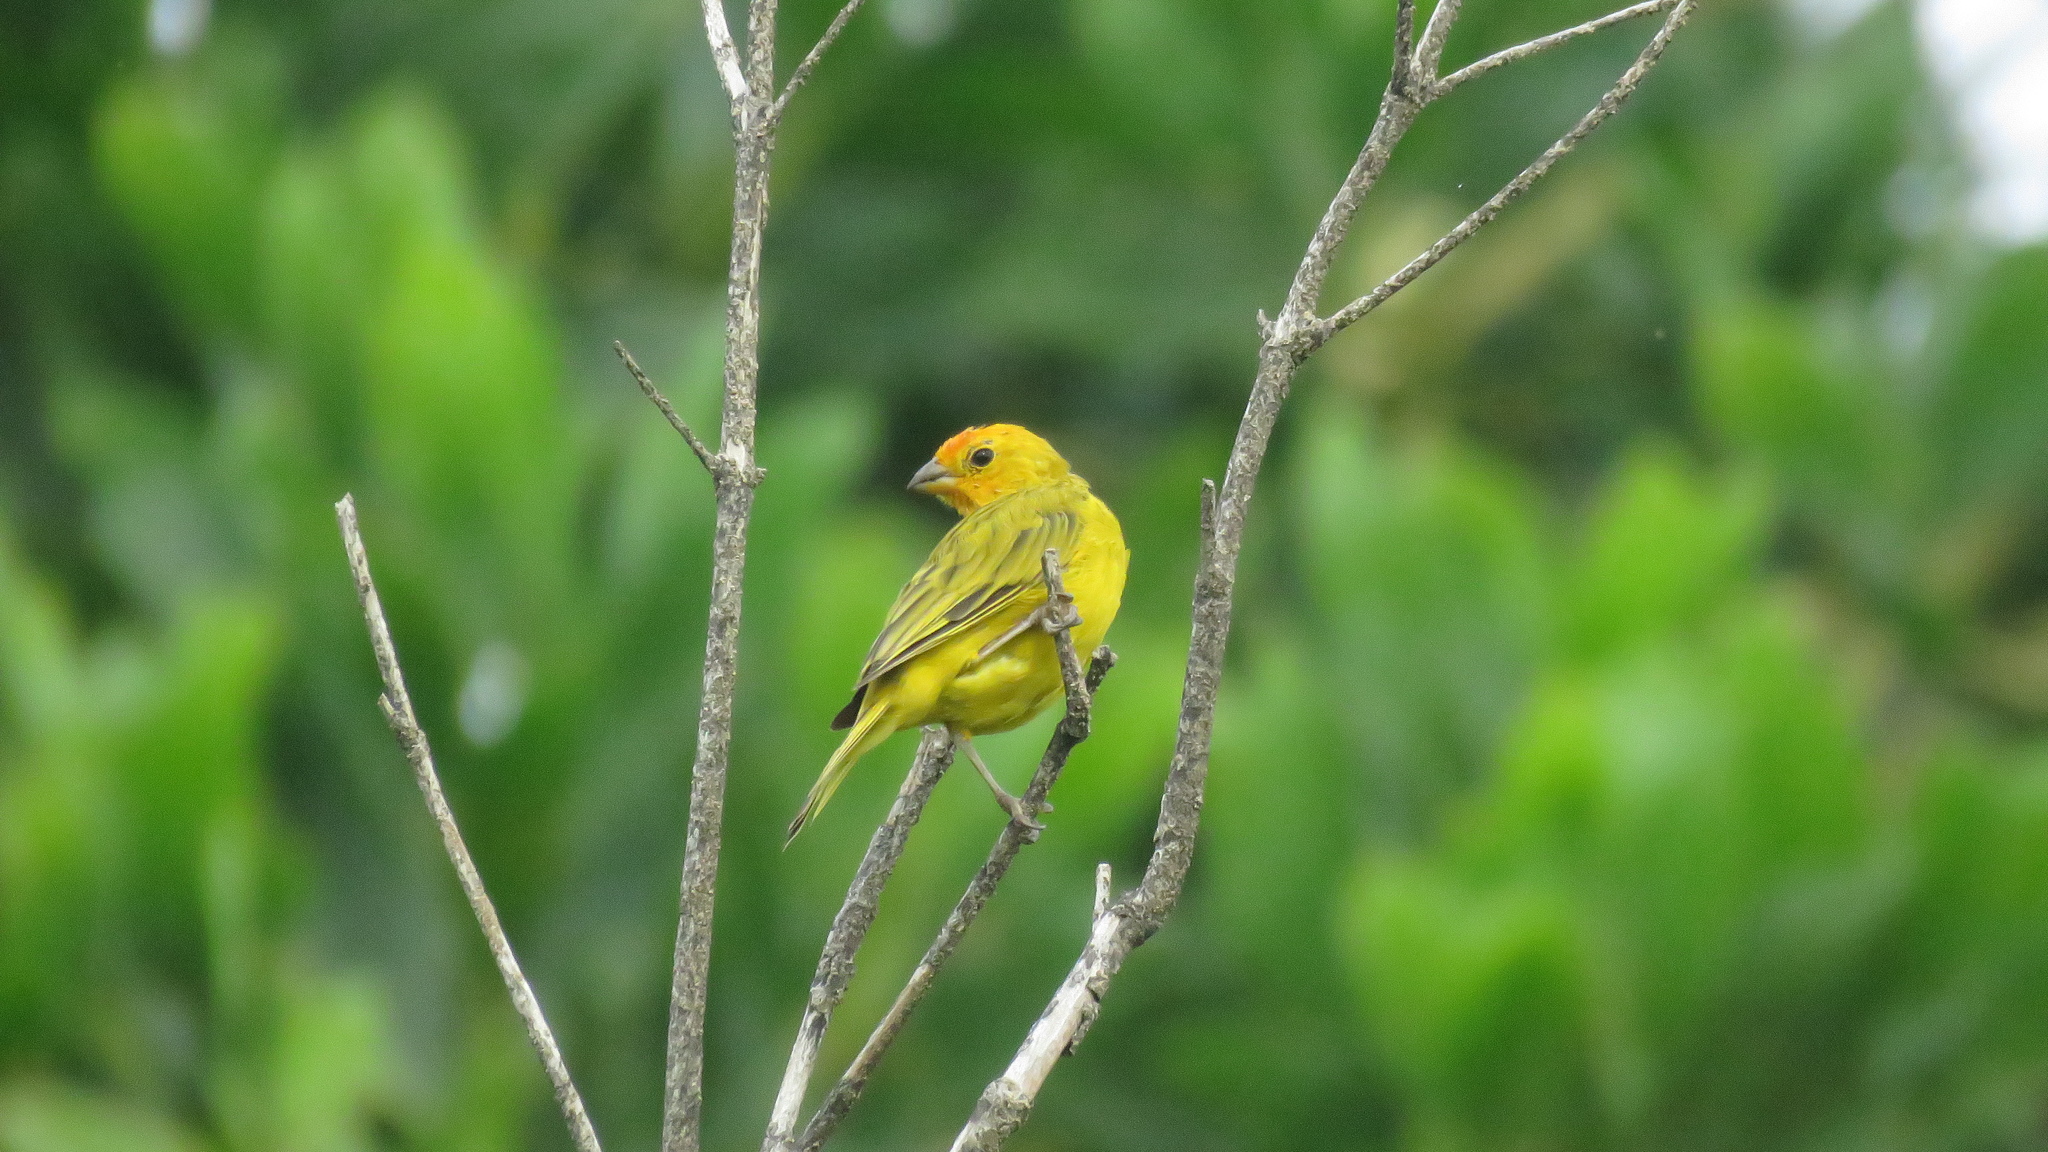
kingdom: Animalia
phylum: Chordata
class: Aves
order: Passeriformes
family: Thraupidae
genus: Sicalis
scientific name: Sicalis flaveola
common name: Saffron finch
